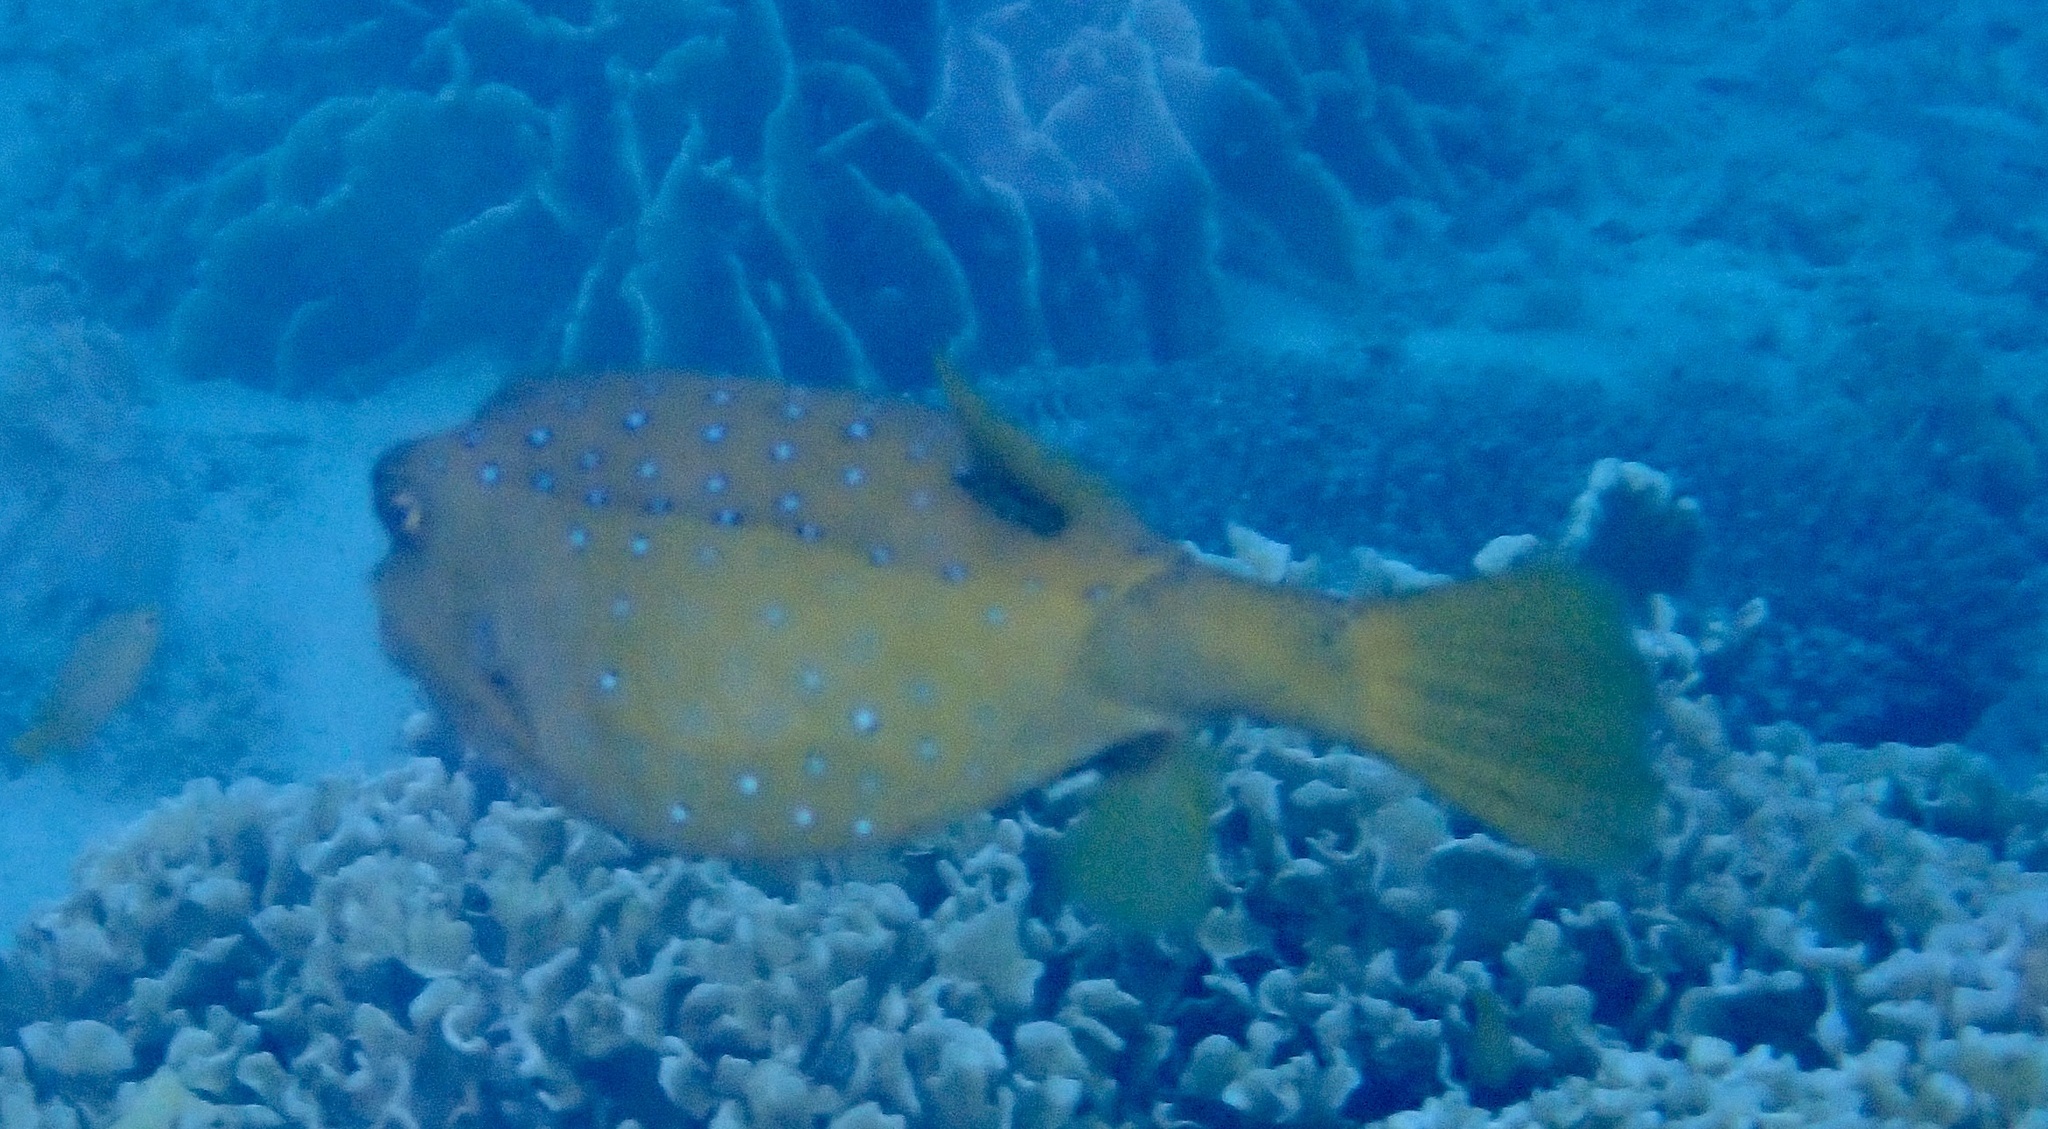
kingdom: Animalia
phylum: Chordata
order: Tetraodontiformes
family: Ostraciidae
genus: Ostracion
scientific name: Ostracion cubicus
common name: Cube trunkfish
